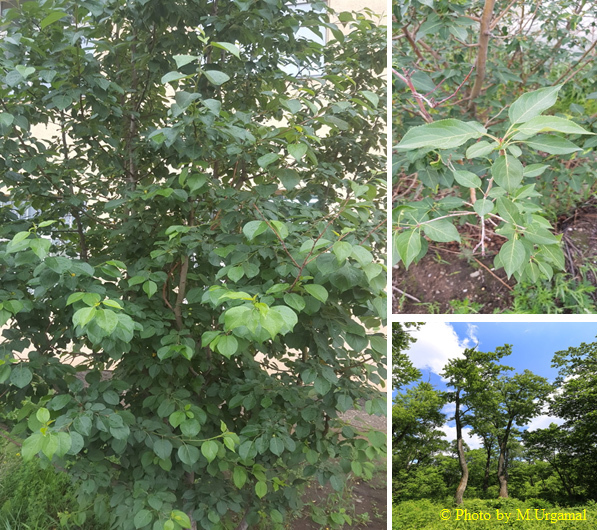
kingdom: Plantae
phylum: Tracheophyta
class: Magnoliopsida
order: Malpighiales
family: Salicaceae
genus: Populus
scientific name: Populus suaveolens
